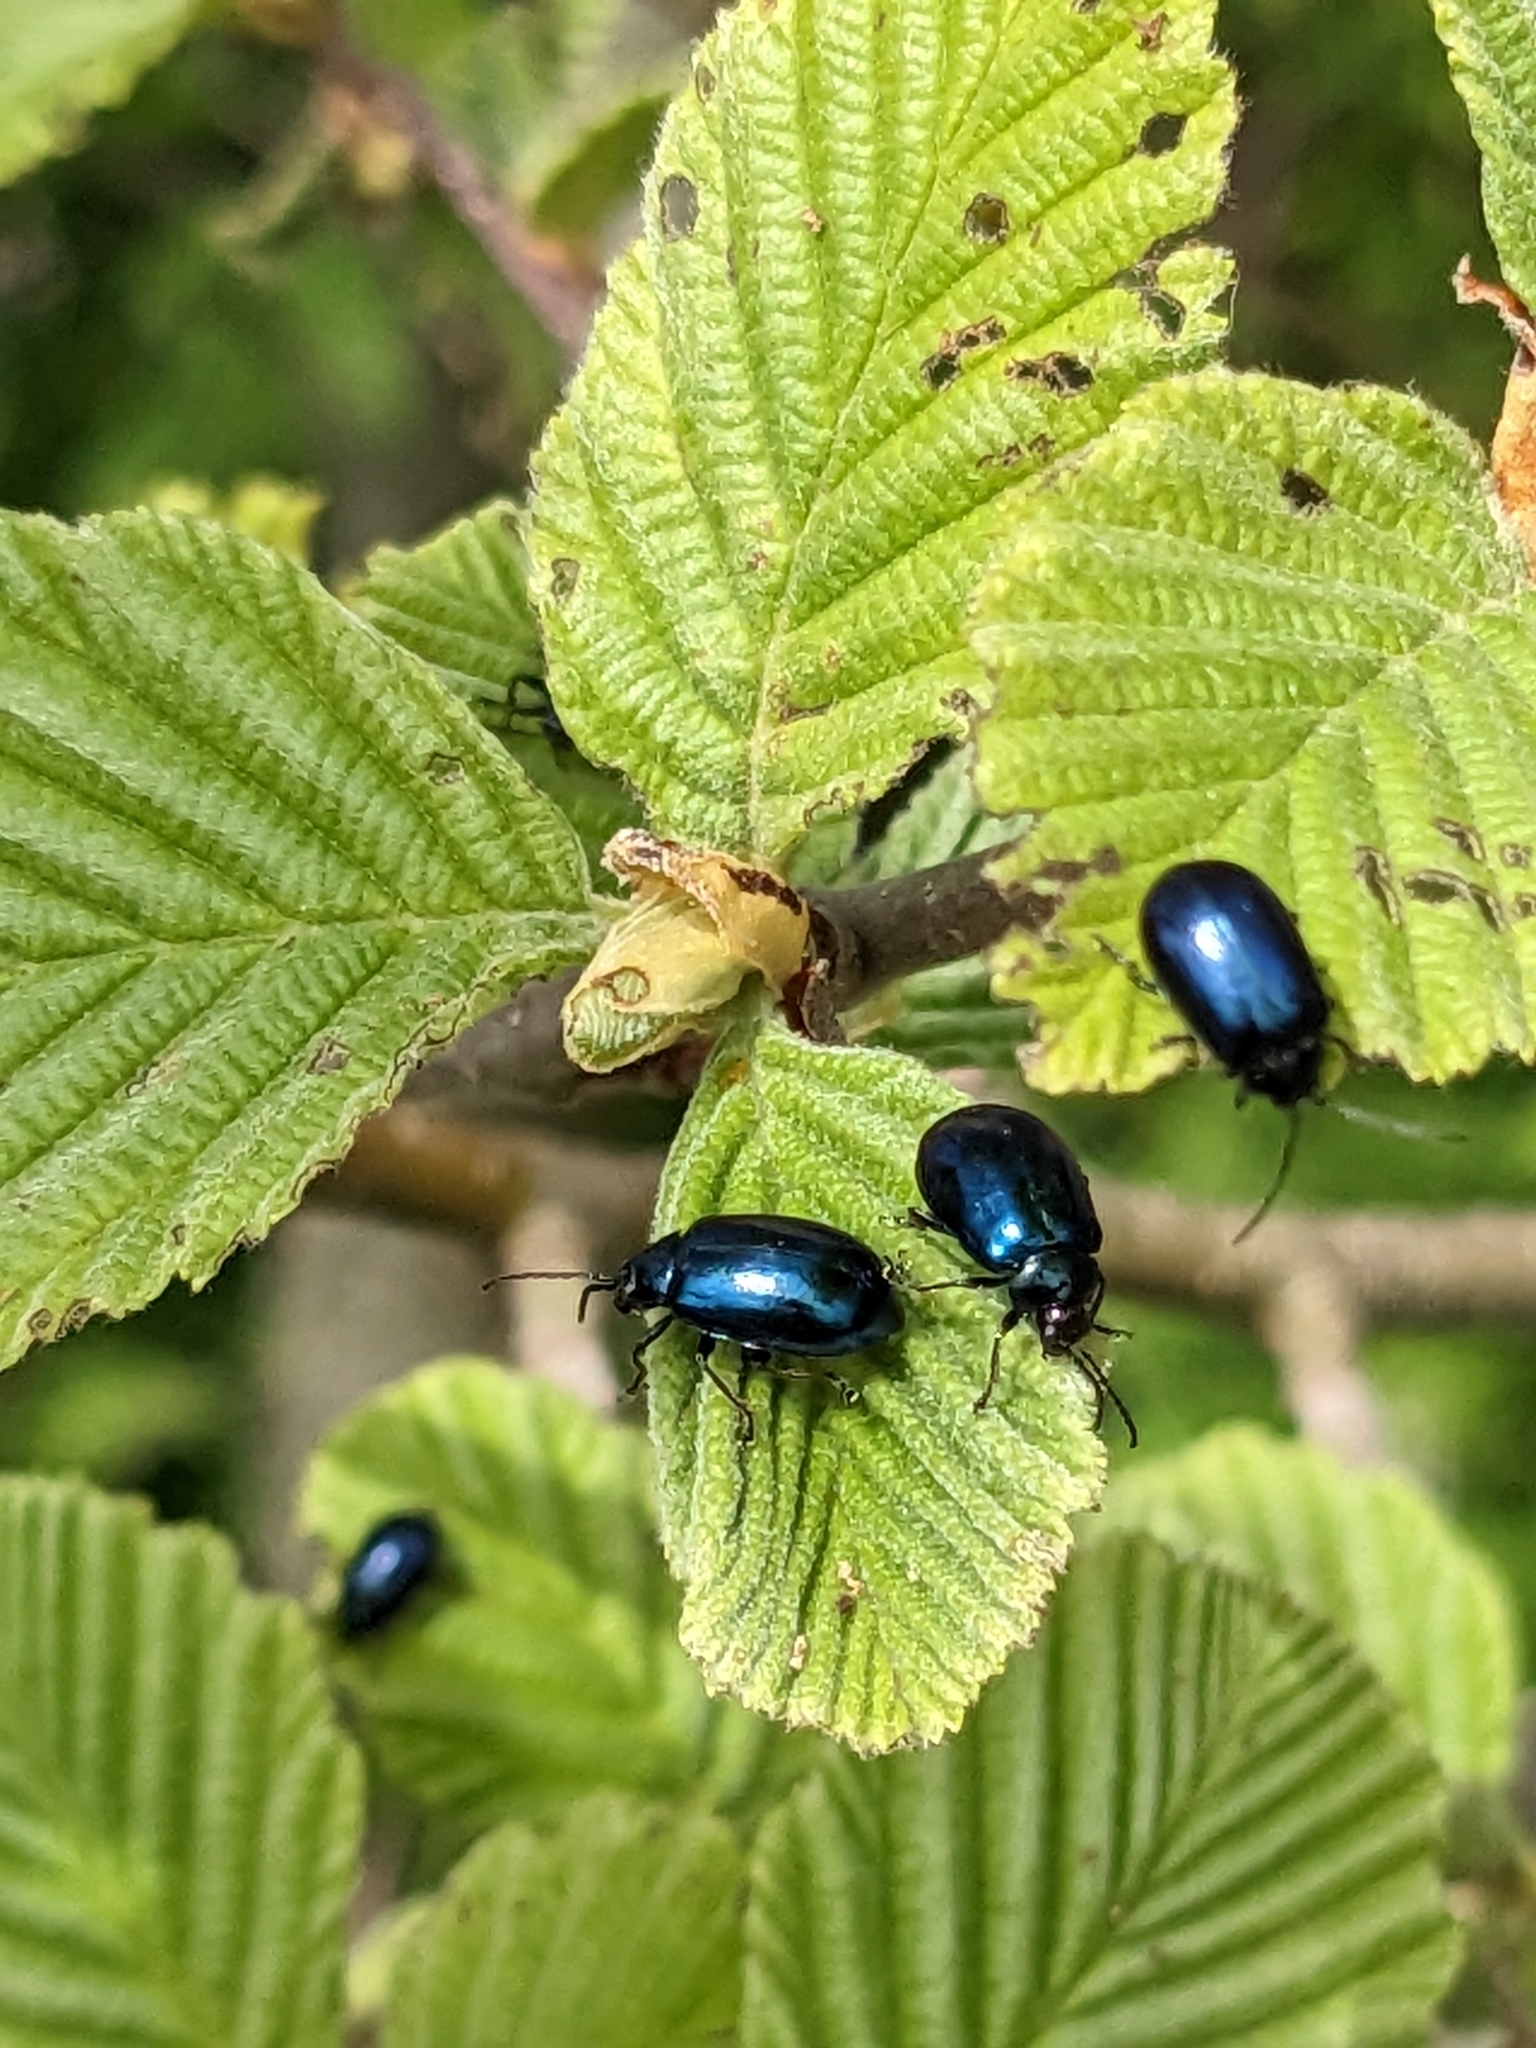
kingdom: Animalia
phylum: Arthropoda
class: Insecta
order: Coleoptera
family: Chrysomelidae
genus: Agelastica
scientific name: Agelastica alni
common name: Alder leaf beetle
